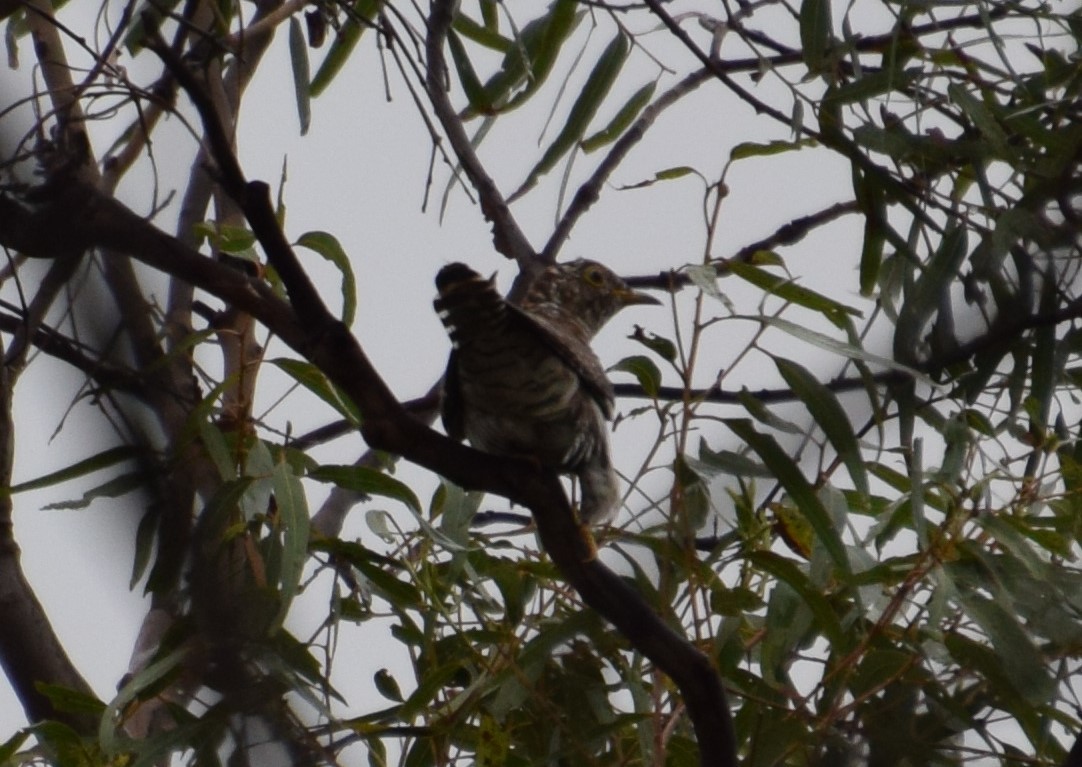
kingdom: Animalia
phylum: Chordata
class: Aves
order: Cuculiformes
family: Cuculidae
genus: Cuculus
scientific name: Cuculus optatus
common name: Oriental cuckoo
